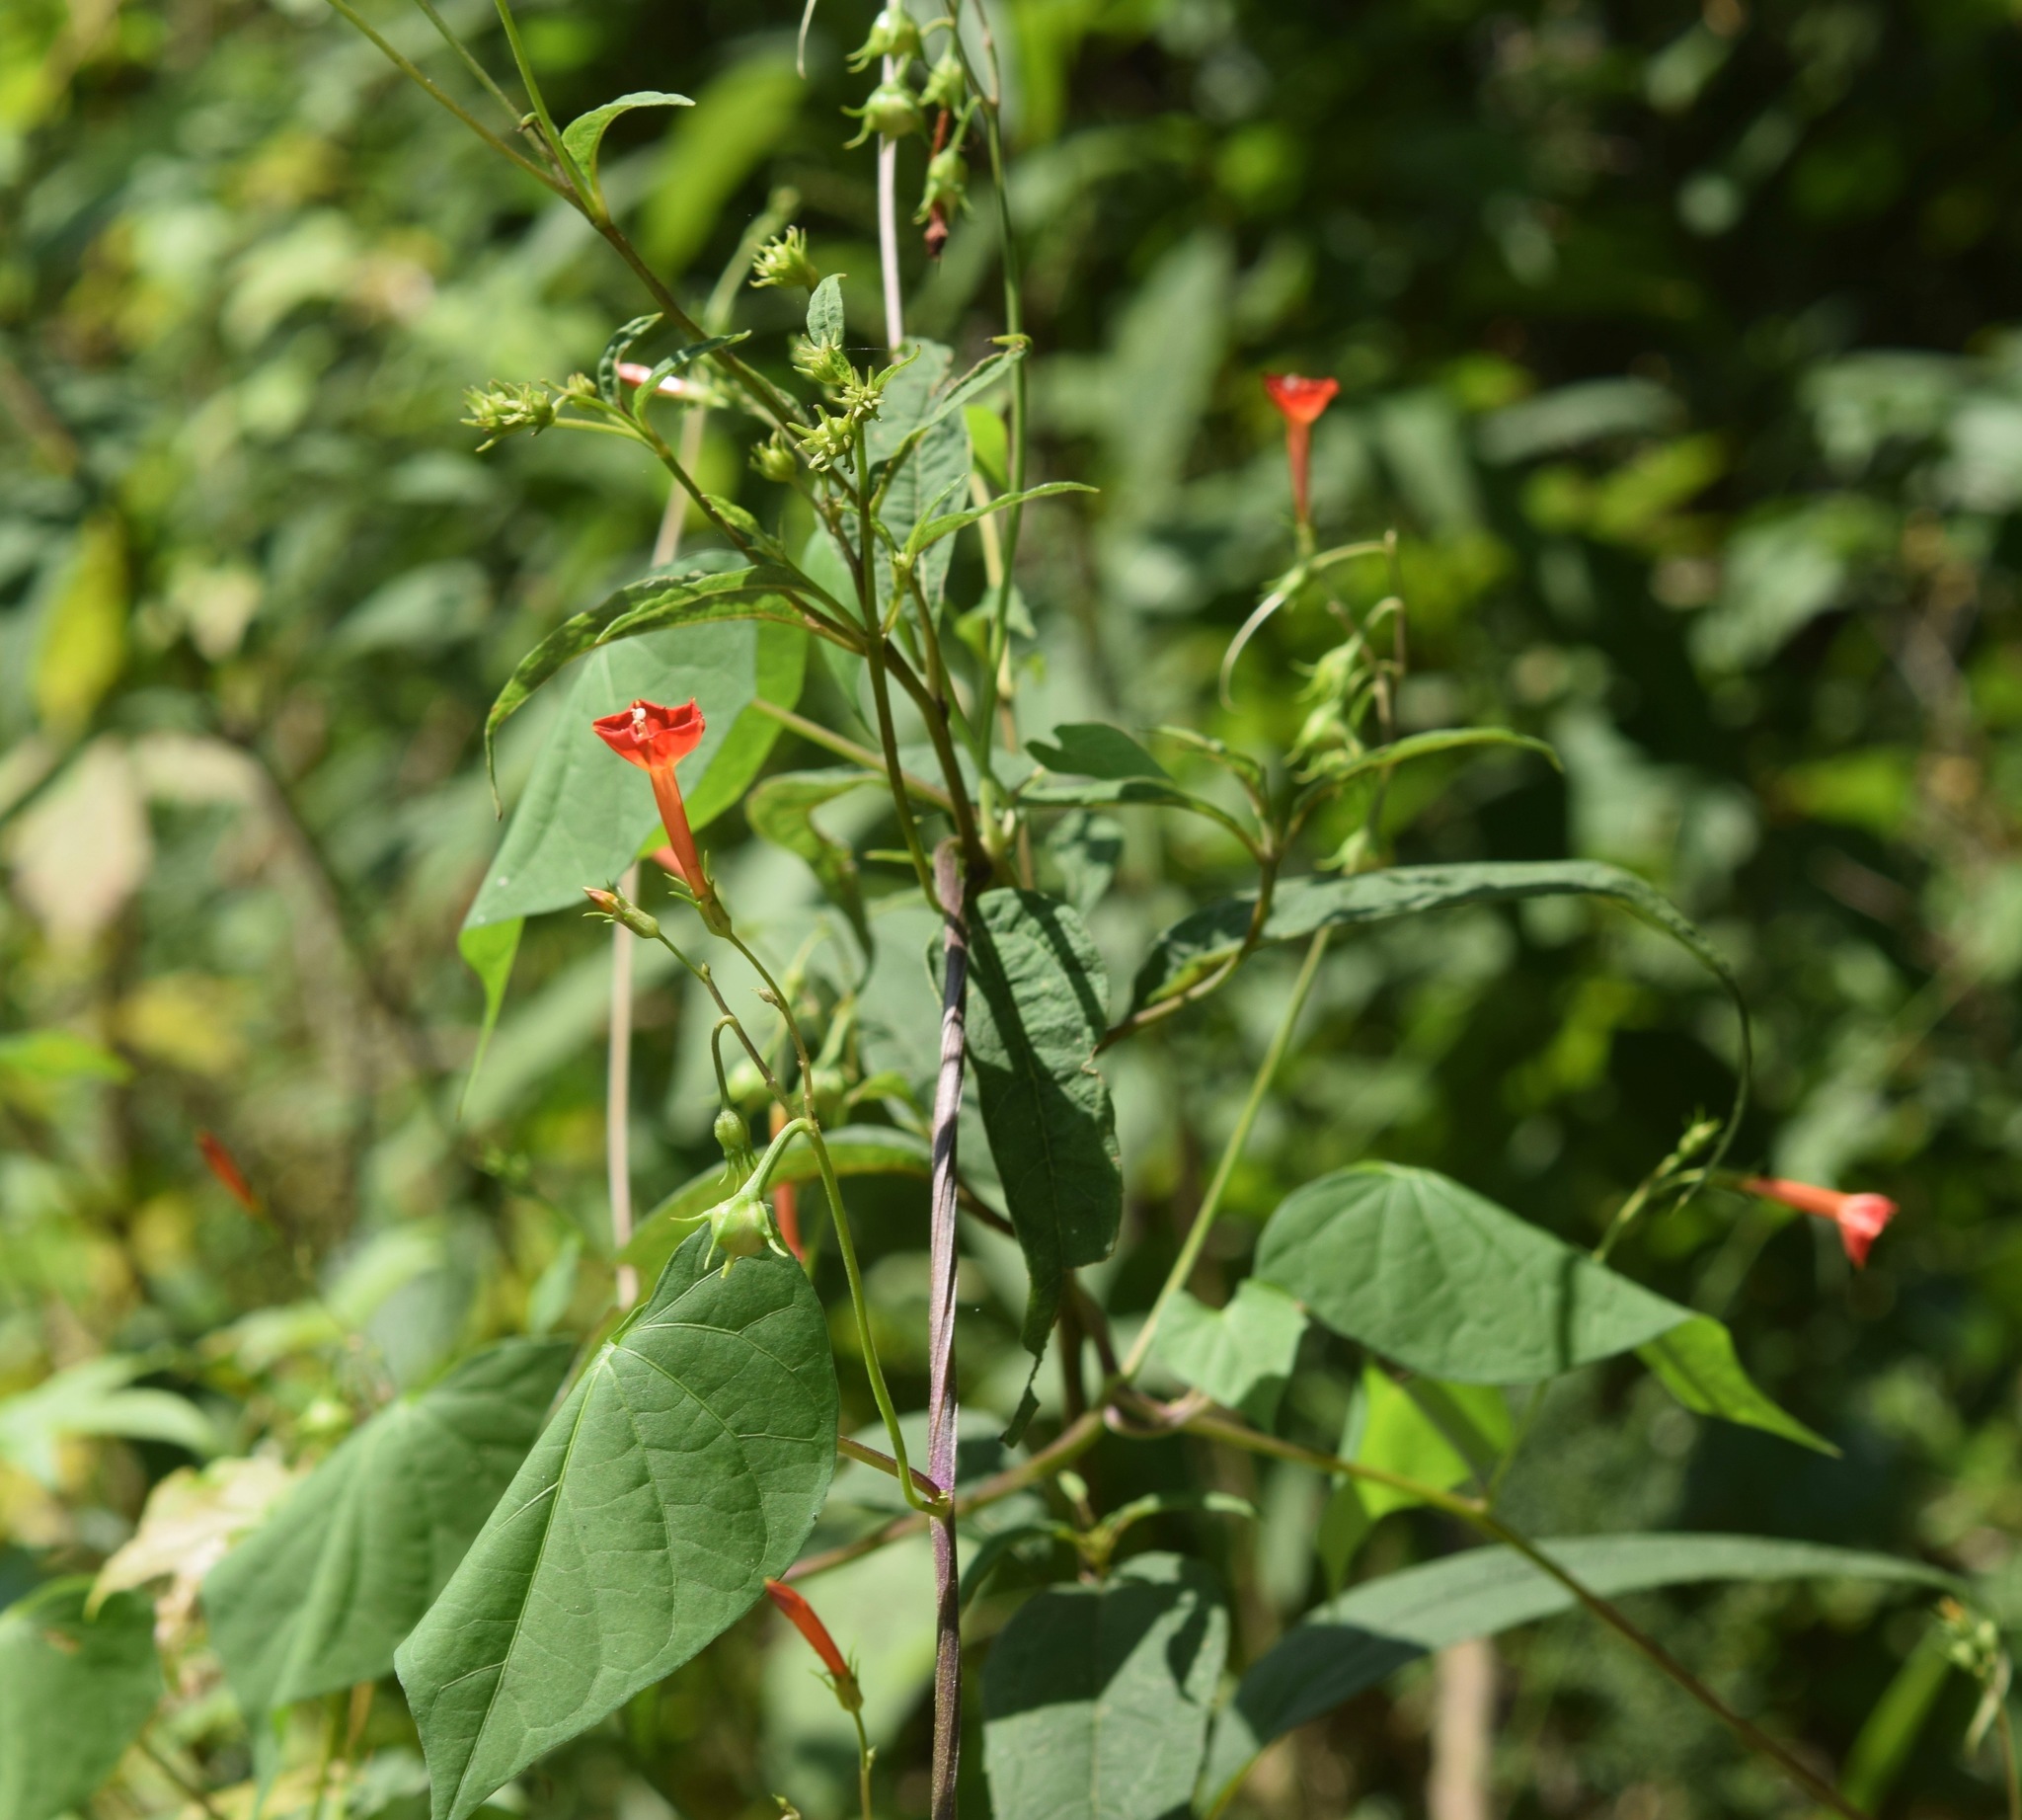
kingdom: Plantae
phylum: Tracheophyta
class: Magnoliopsida
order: Solanales
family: Convolvulaceae
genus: Ipomoea
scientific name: Ipomoea coccinea
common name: Red morning-glory
